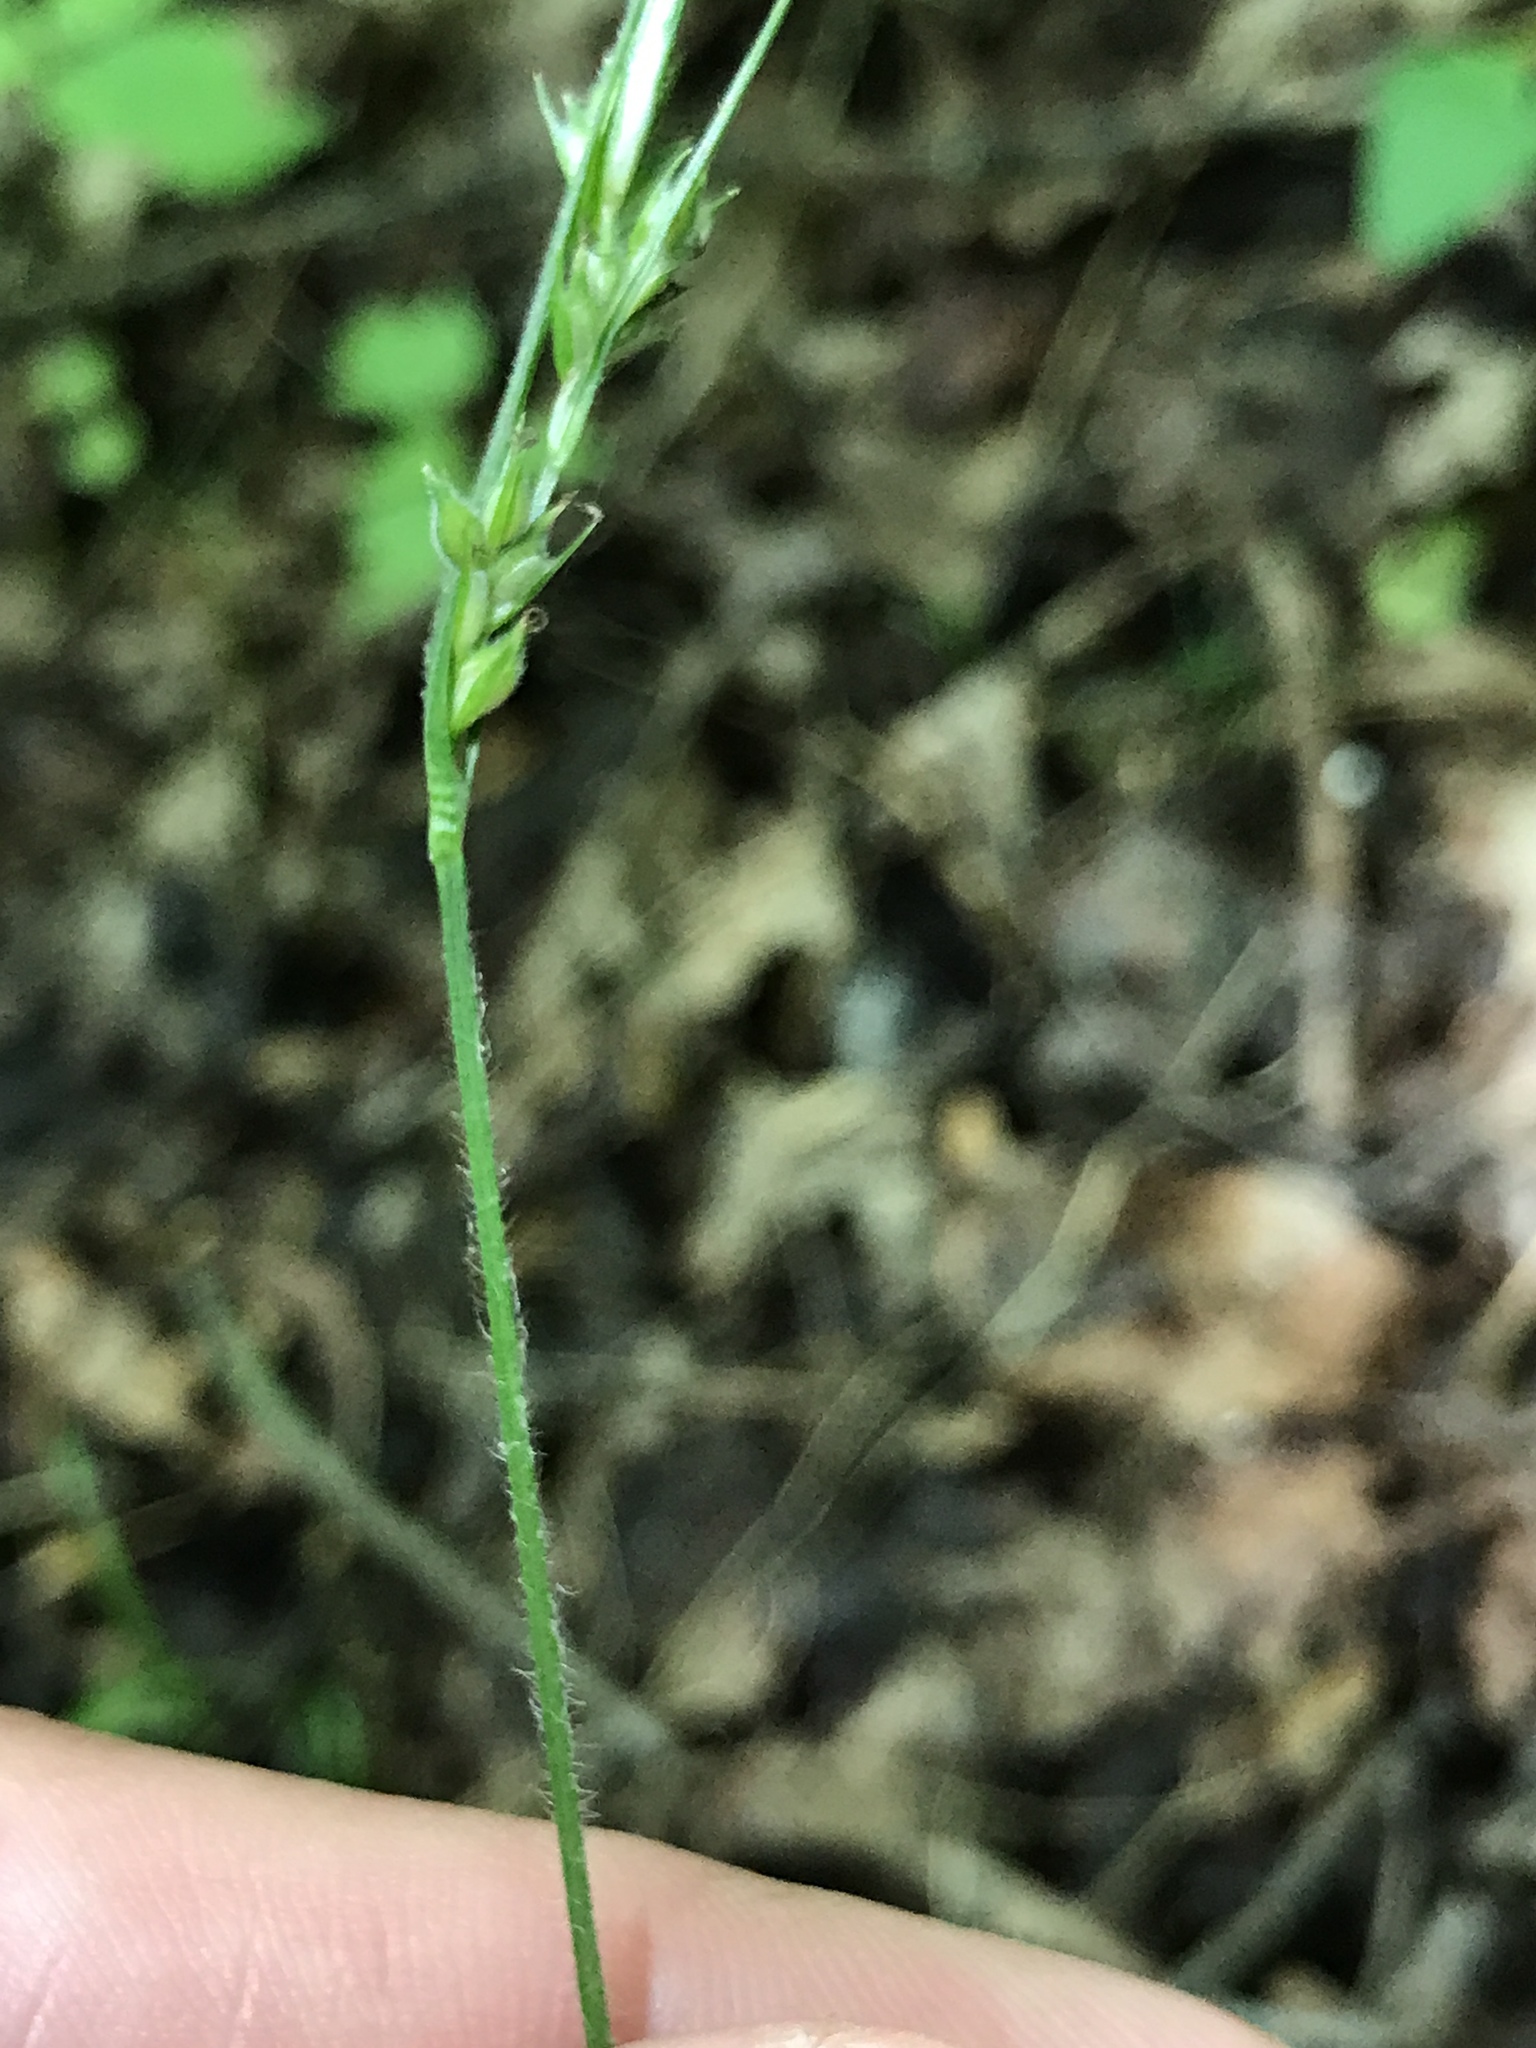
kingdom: Plantae
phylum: Tracheophyta
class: Liliopsida
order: Poales
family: Cyperaceae
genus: Carex
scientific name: Carex hirtifolia
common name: Hairy sedge
